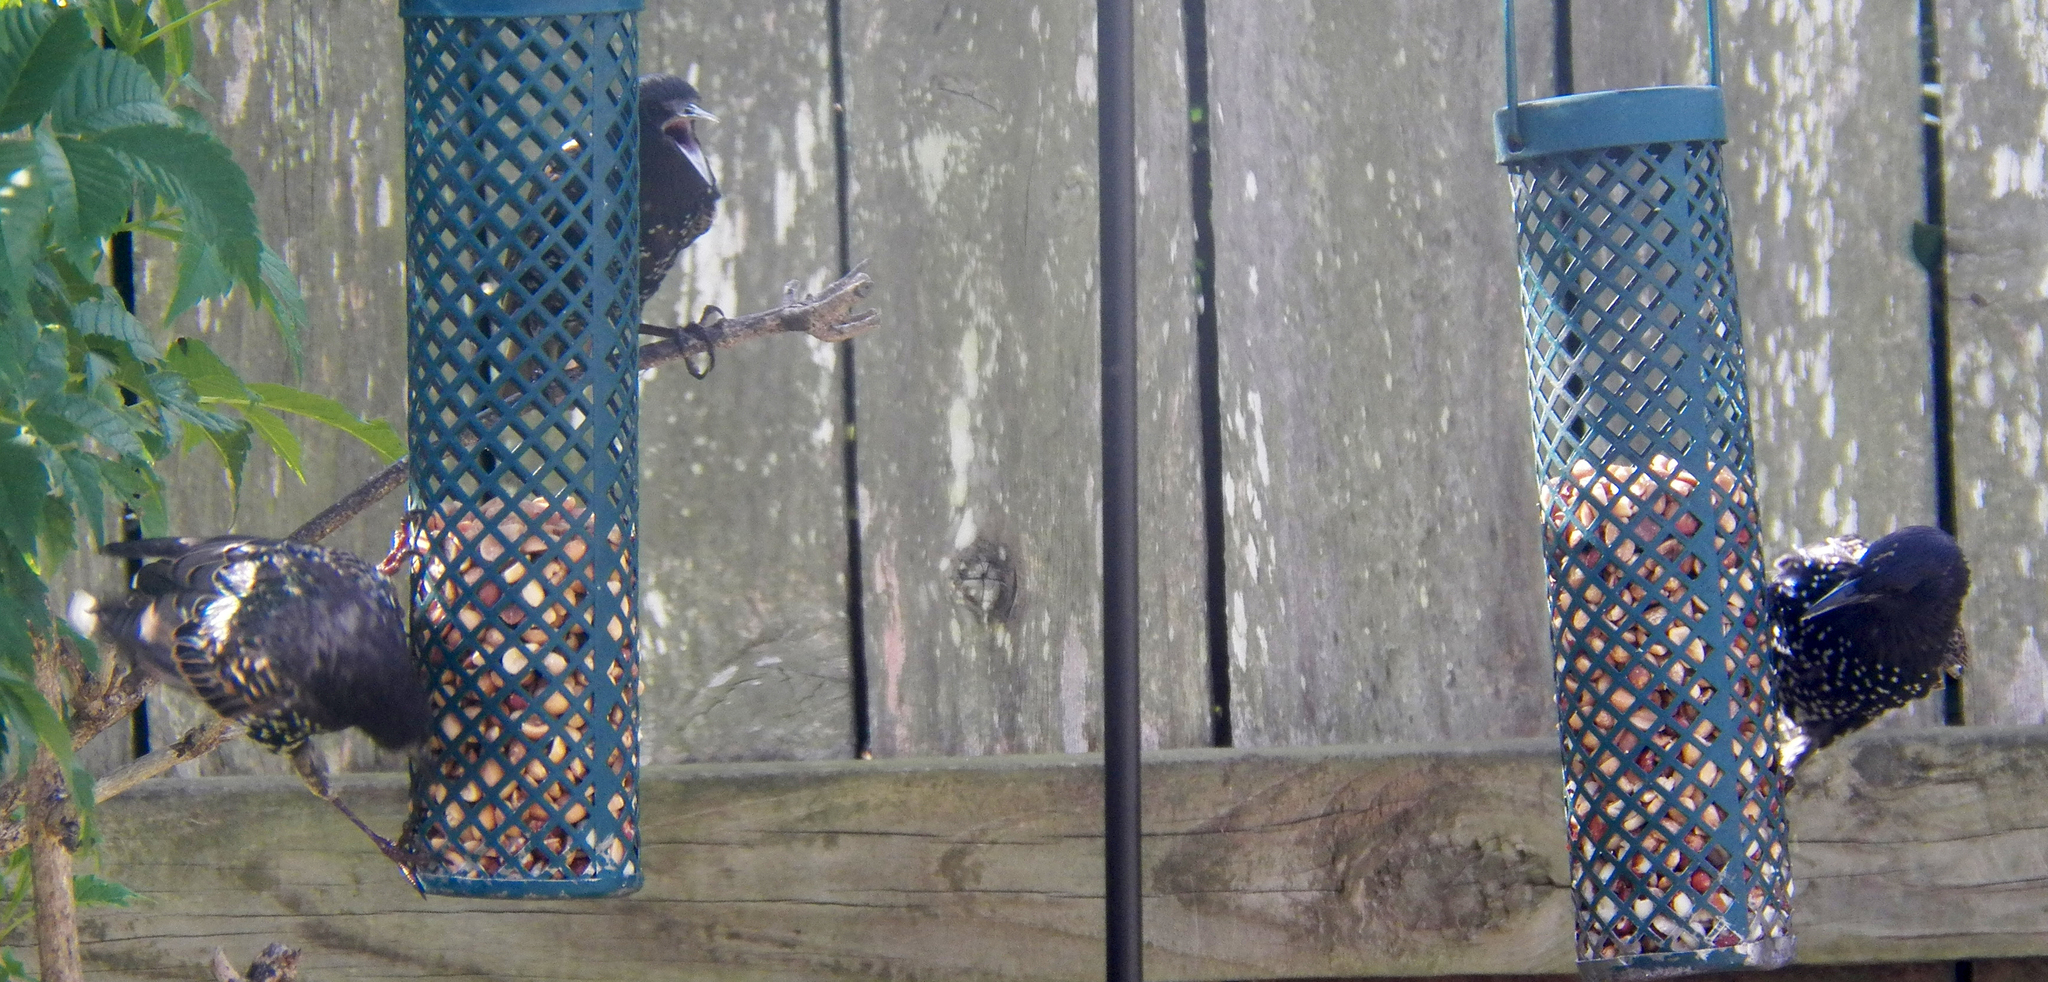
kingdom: Animalia
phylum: Chordata
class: Aves
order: Passeriformes
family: Sturnidae
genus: Sturnus
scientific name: Sturnus vulgaris
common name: Common starling
